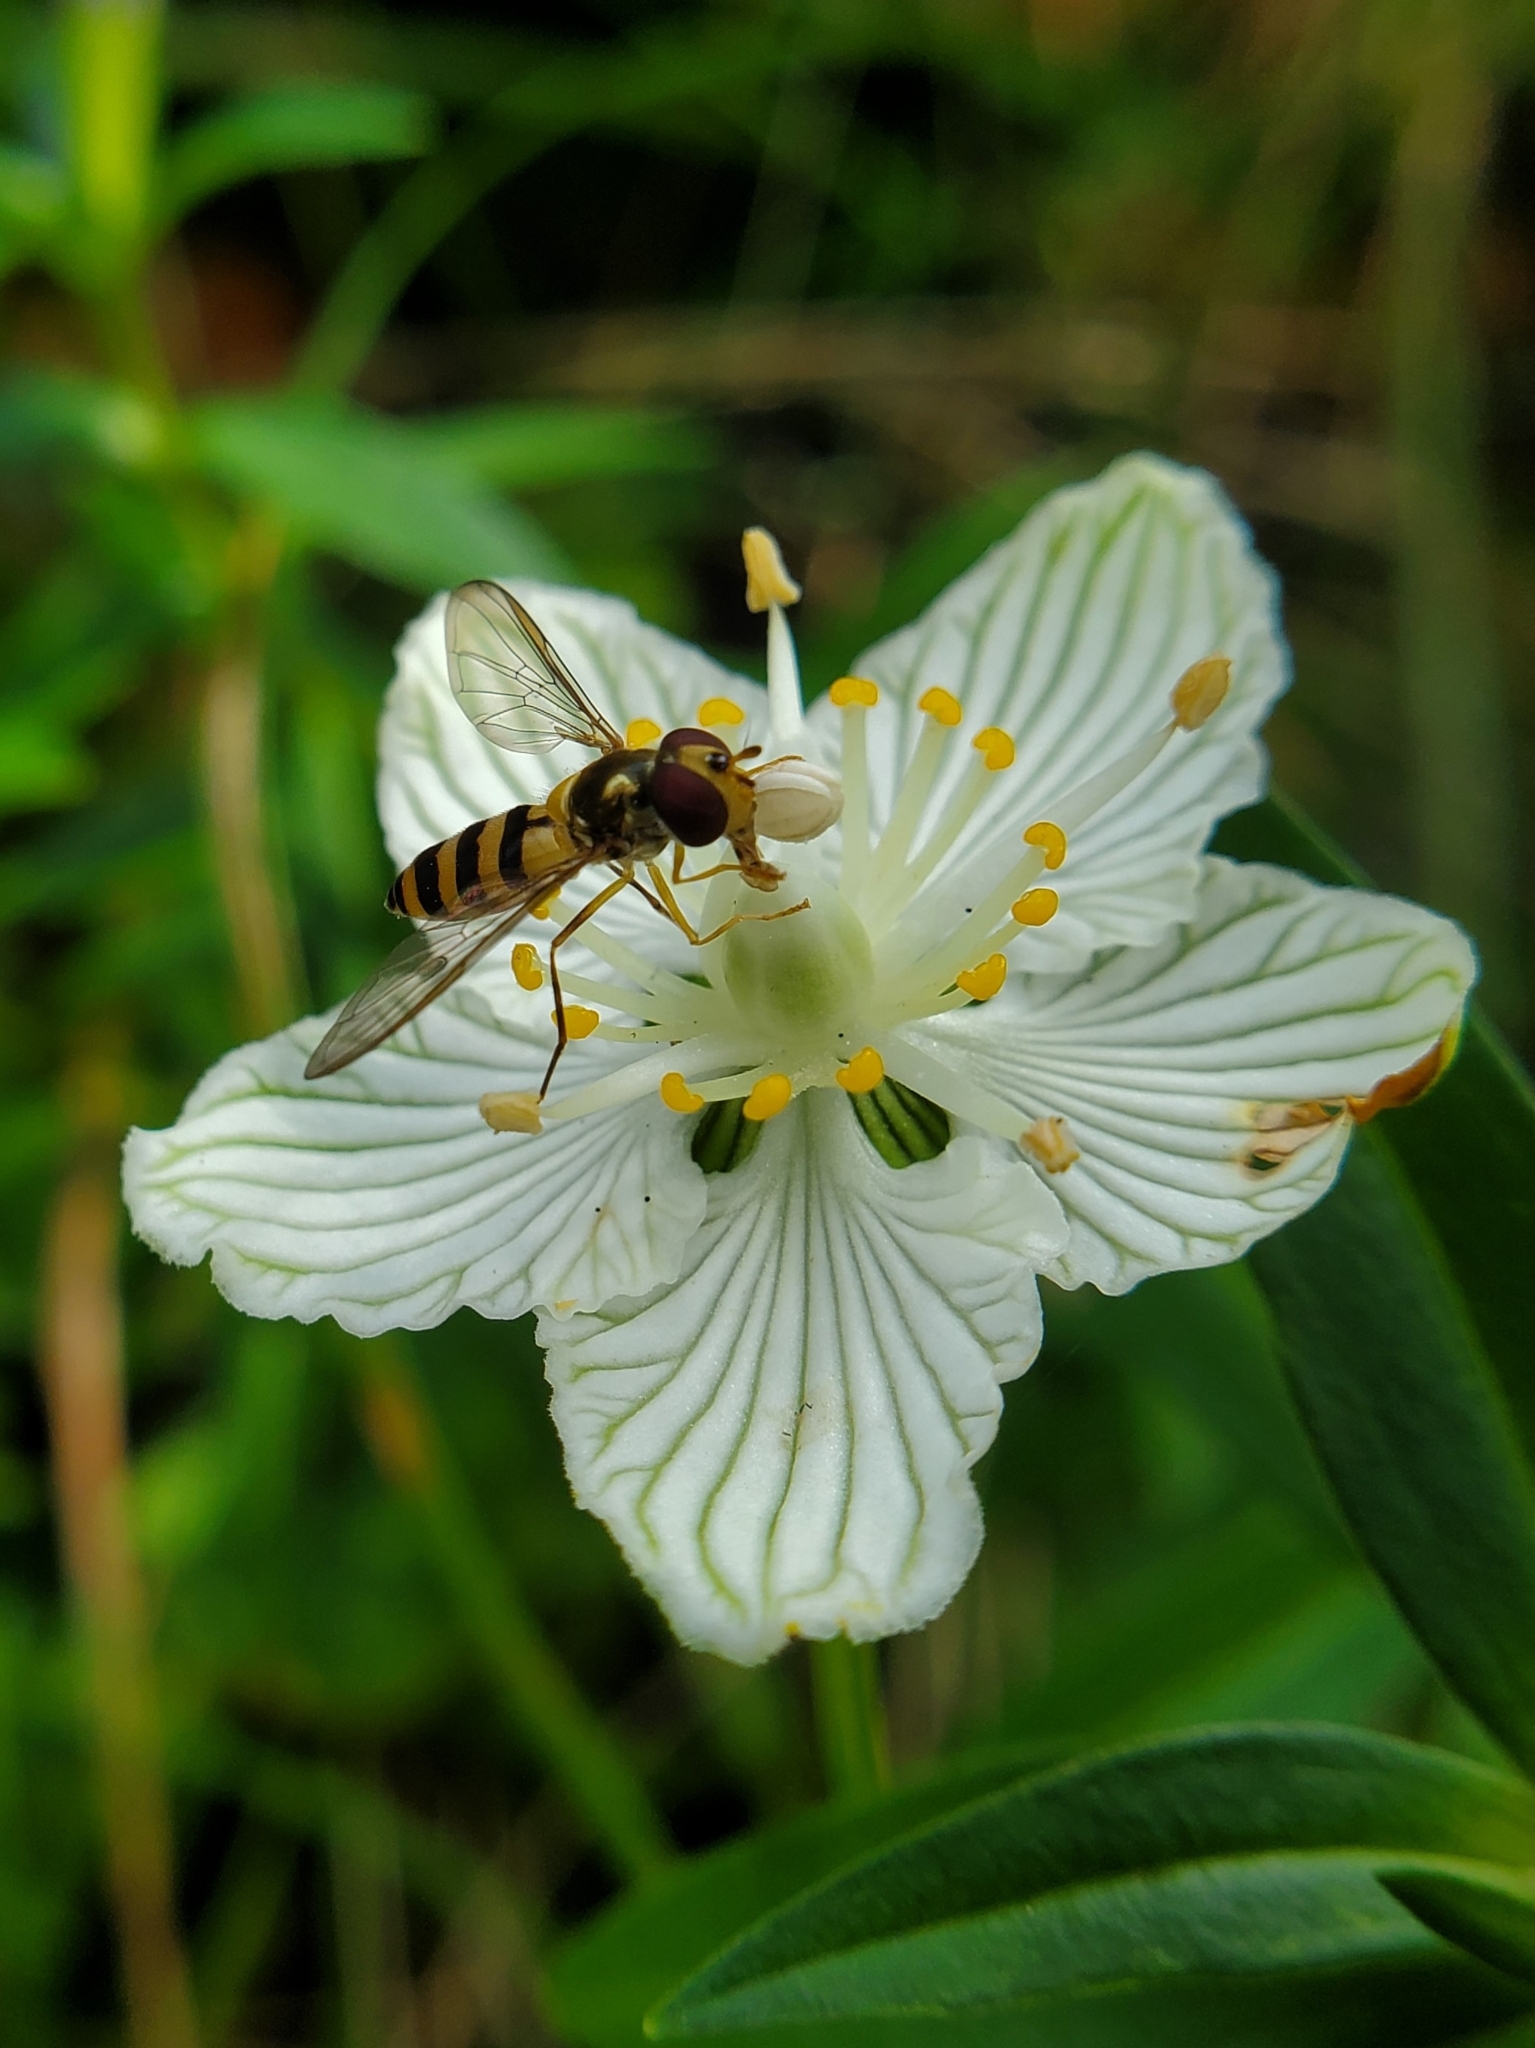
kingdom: Animalia
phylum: Arthropoda
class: Insecta
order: Diptera
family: Syrphidae
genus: Meliscaeva
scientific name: Meliscaeva cinctella
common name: American thintail fly
